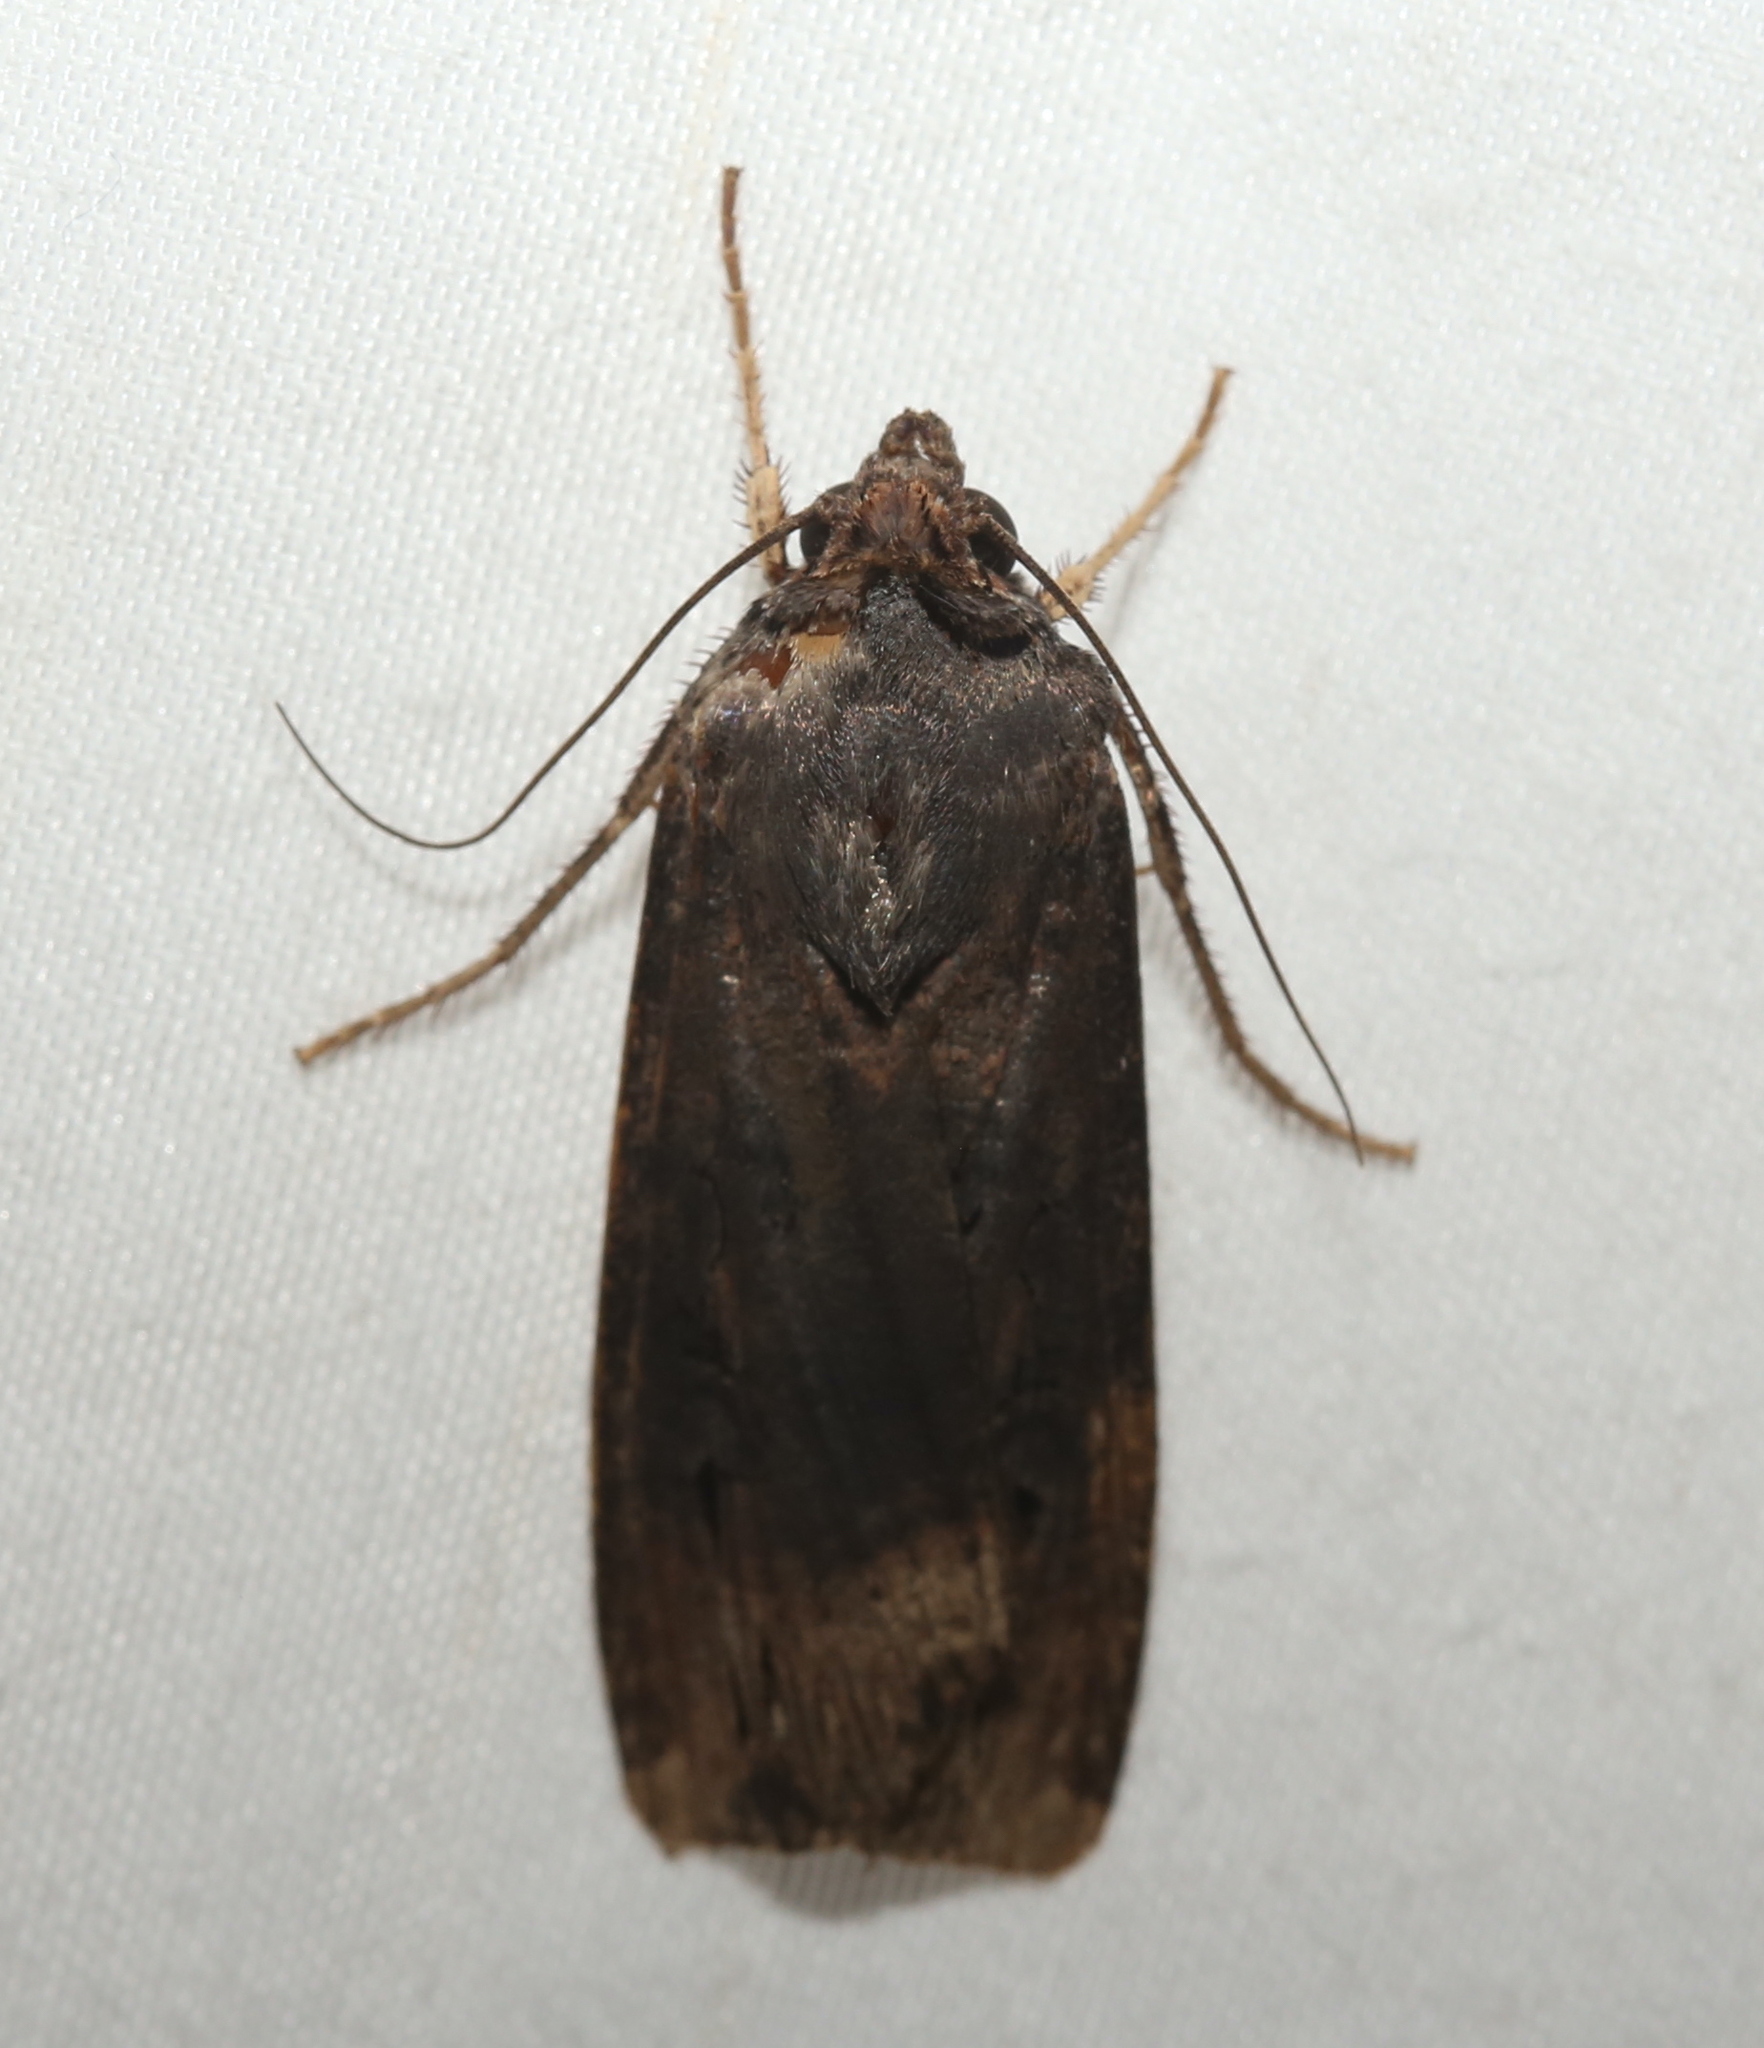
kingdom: Animalia
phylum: Arthropoda
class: Insecta
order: Lepidoptera
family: Noctuidae
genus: Agrotis
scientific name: Agrotis ipsilon
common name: Dark sword-grass
